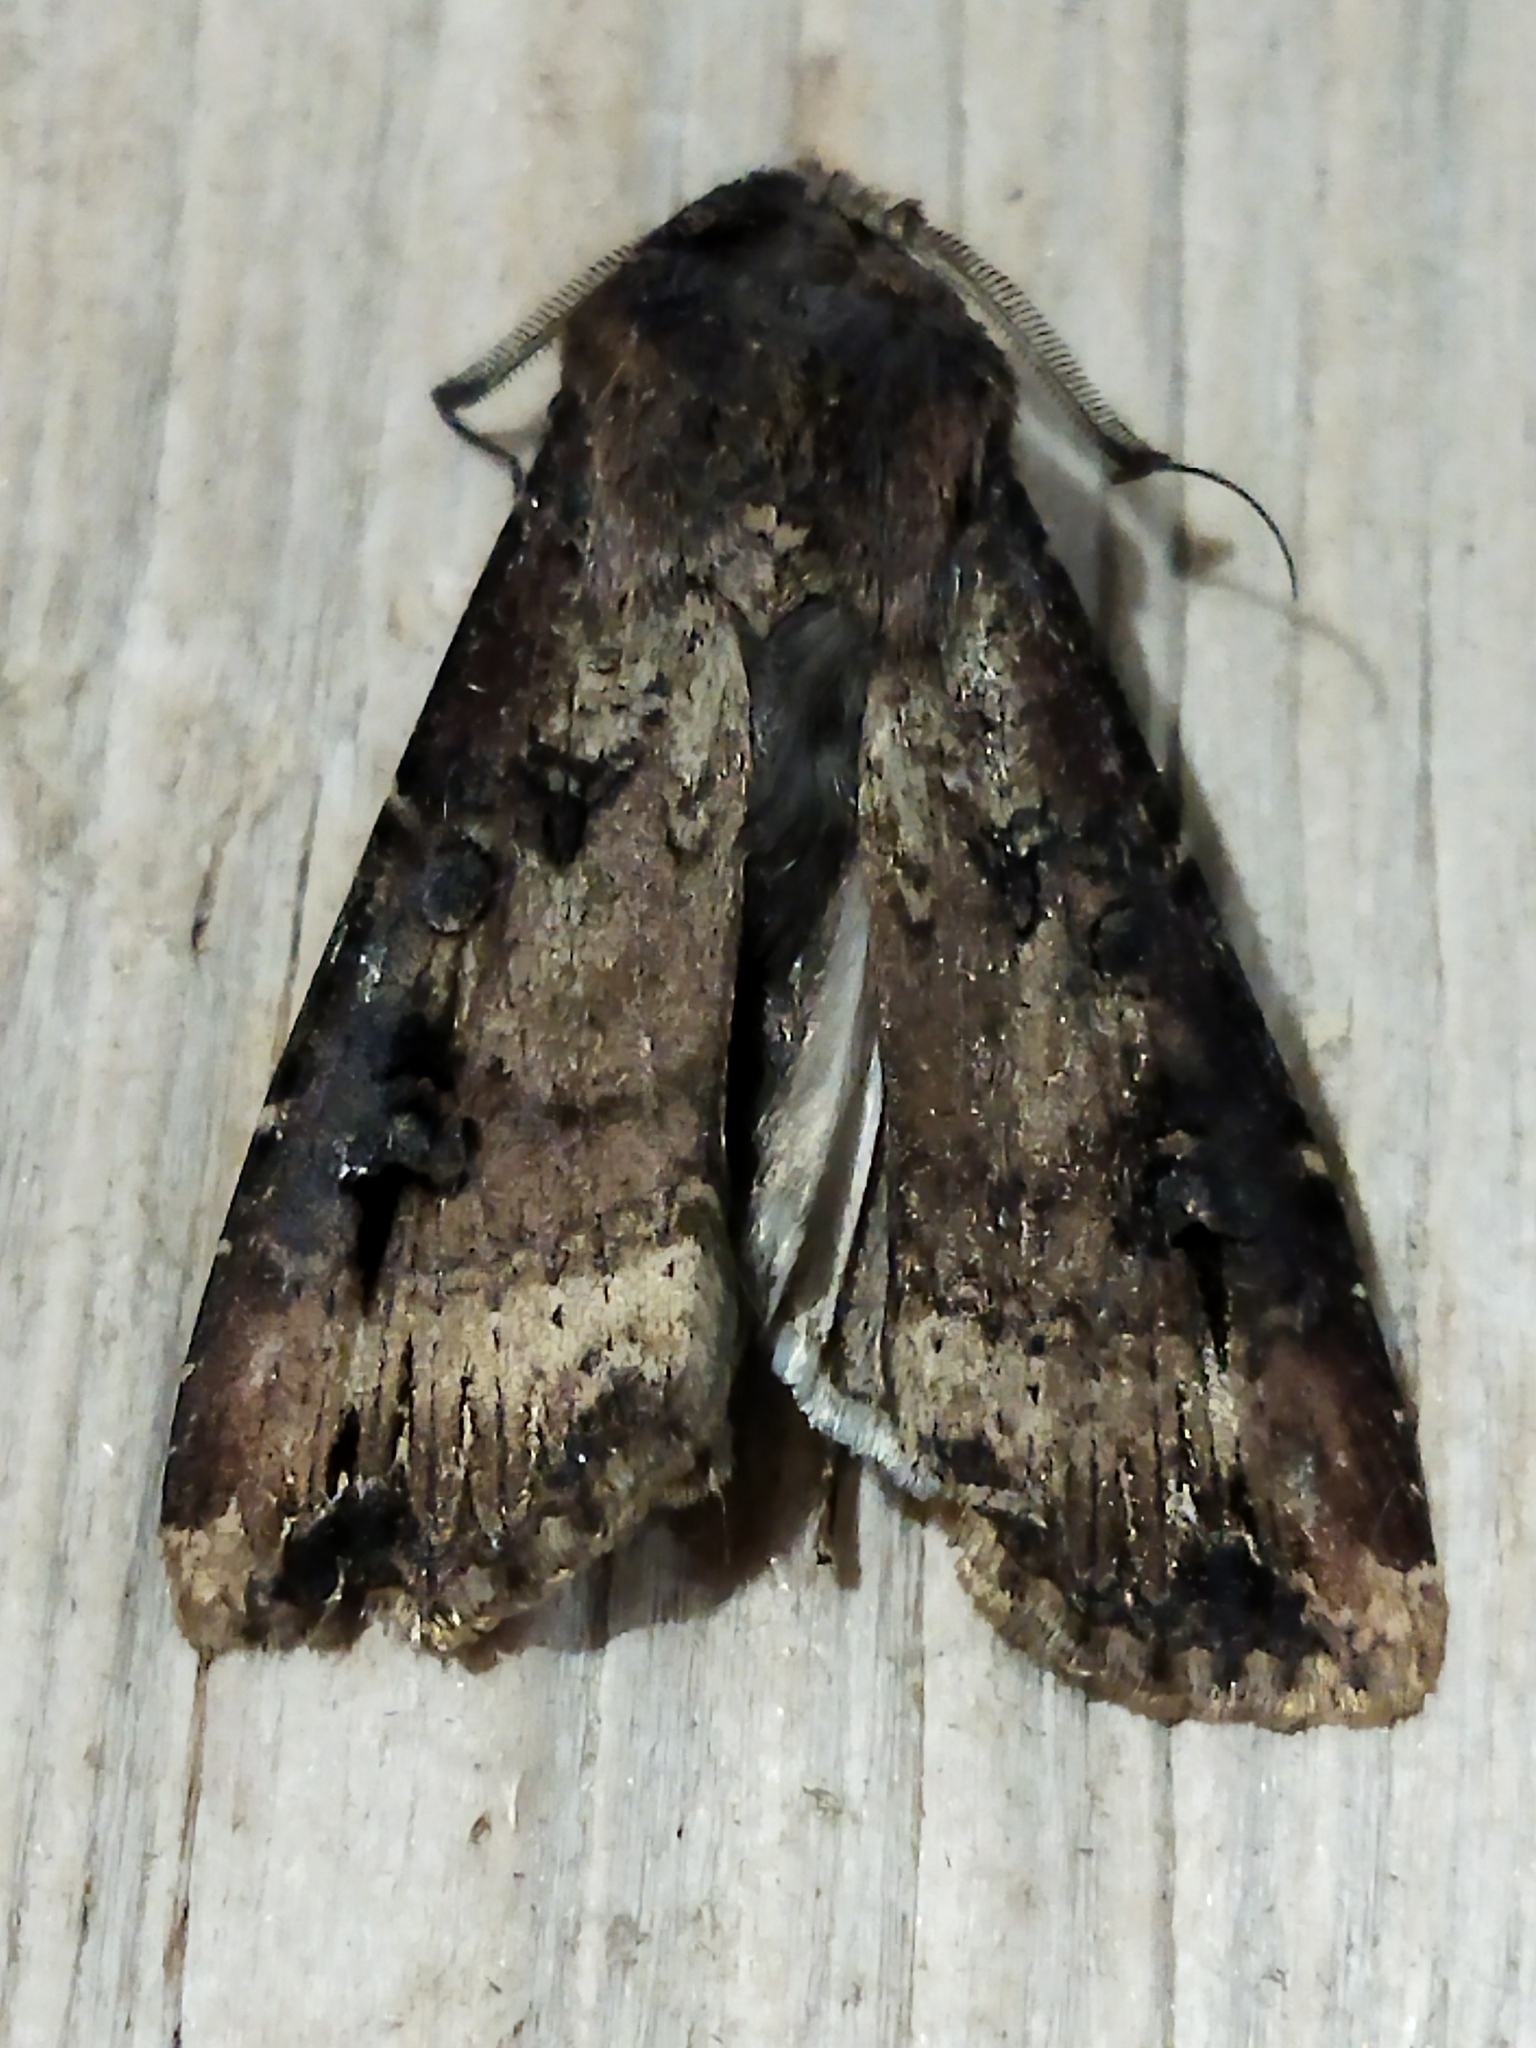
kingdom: Animalia
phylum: Arthropoda
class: Insecta
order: Lepidoptera
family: Noctuidae
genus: Agrotis
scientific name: Agrotis ipsilon
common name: Dark sword-grass
